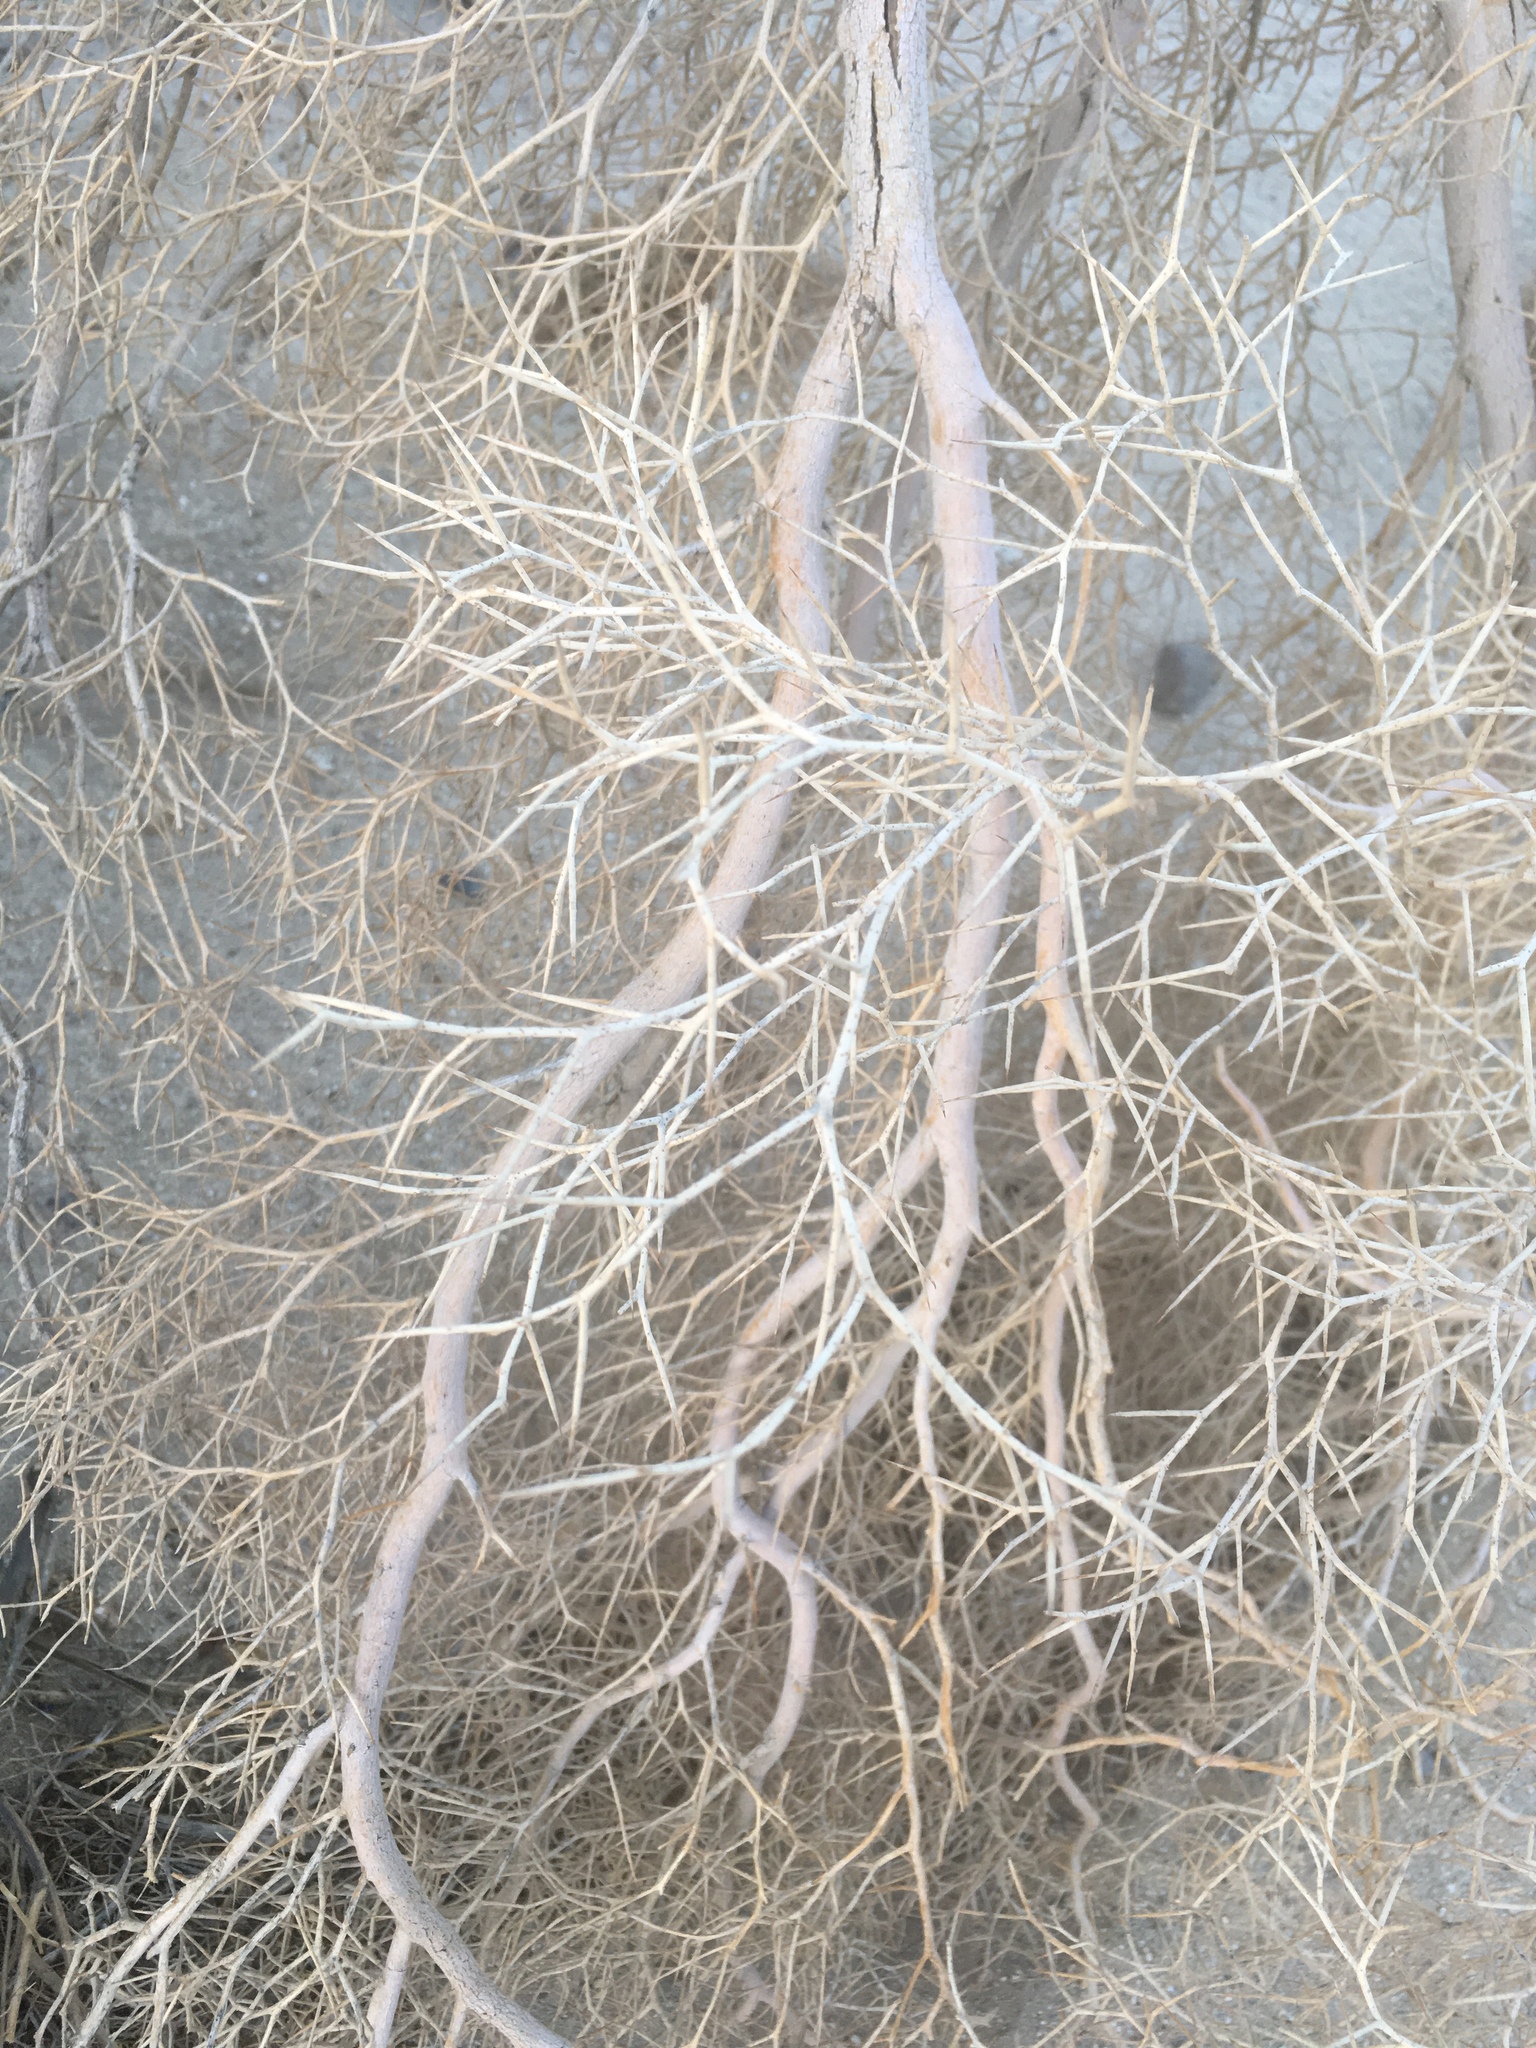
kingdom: Plantae
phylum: Tracheophyta
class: Magnoliopsida
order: Fabales
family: Fabaceae
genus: Psorothamnus
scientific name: Psorothamnus spinosus
